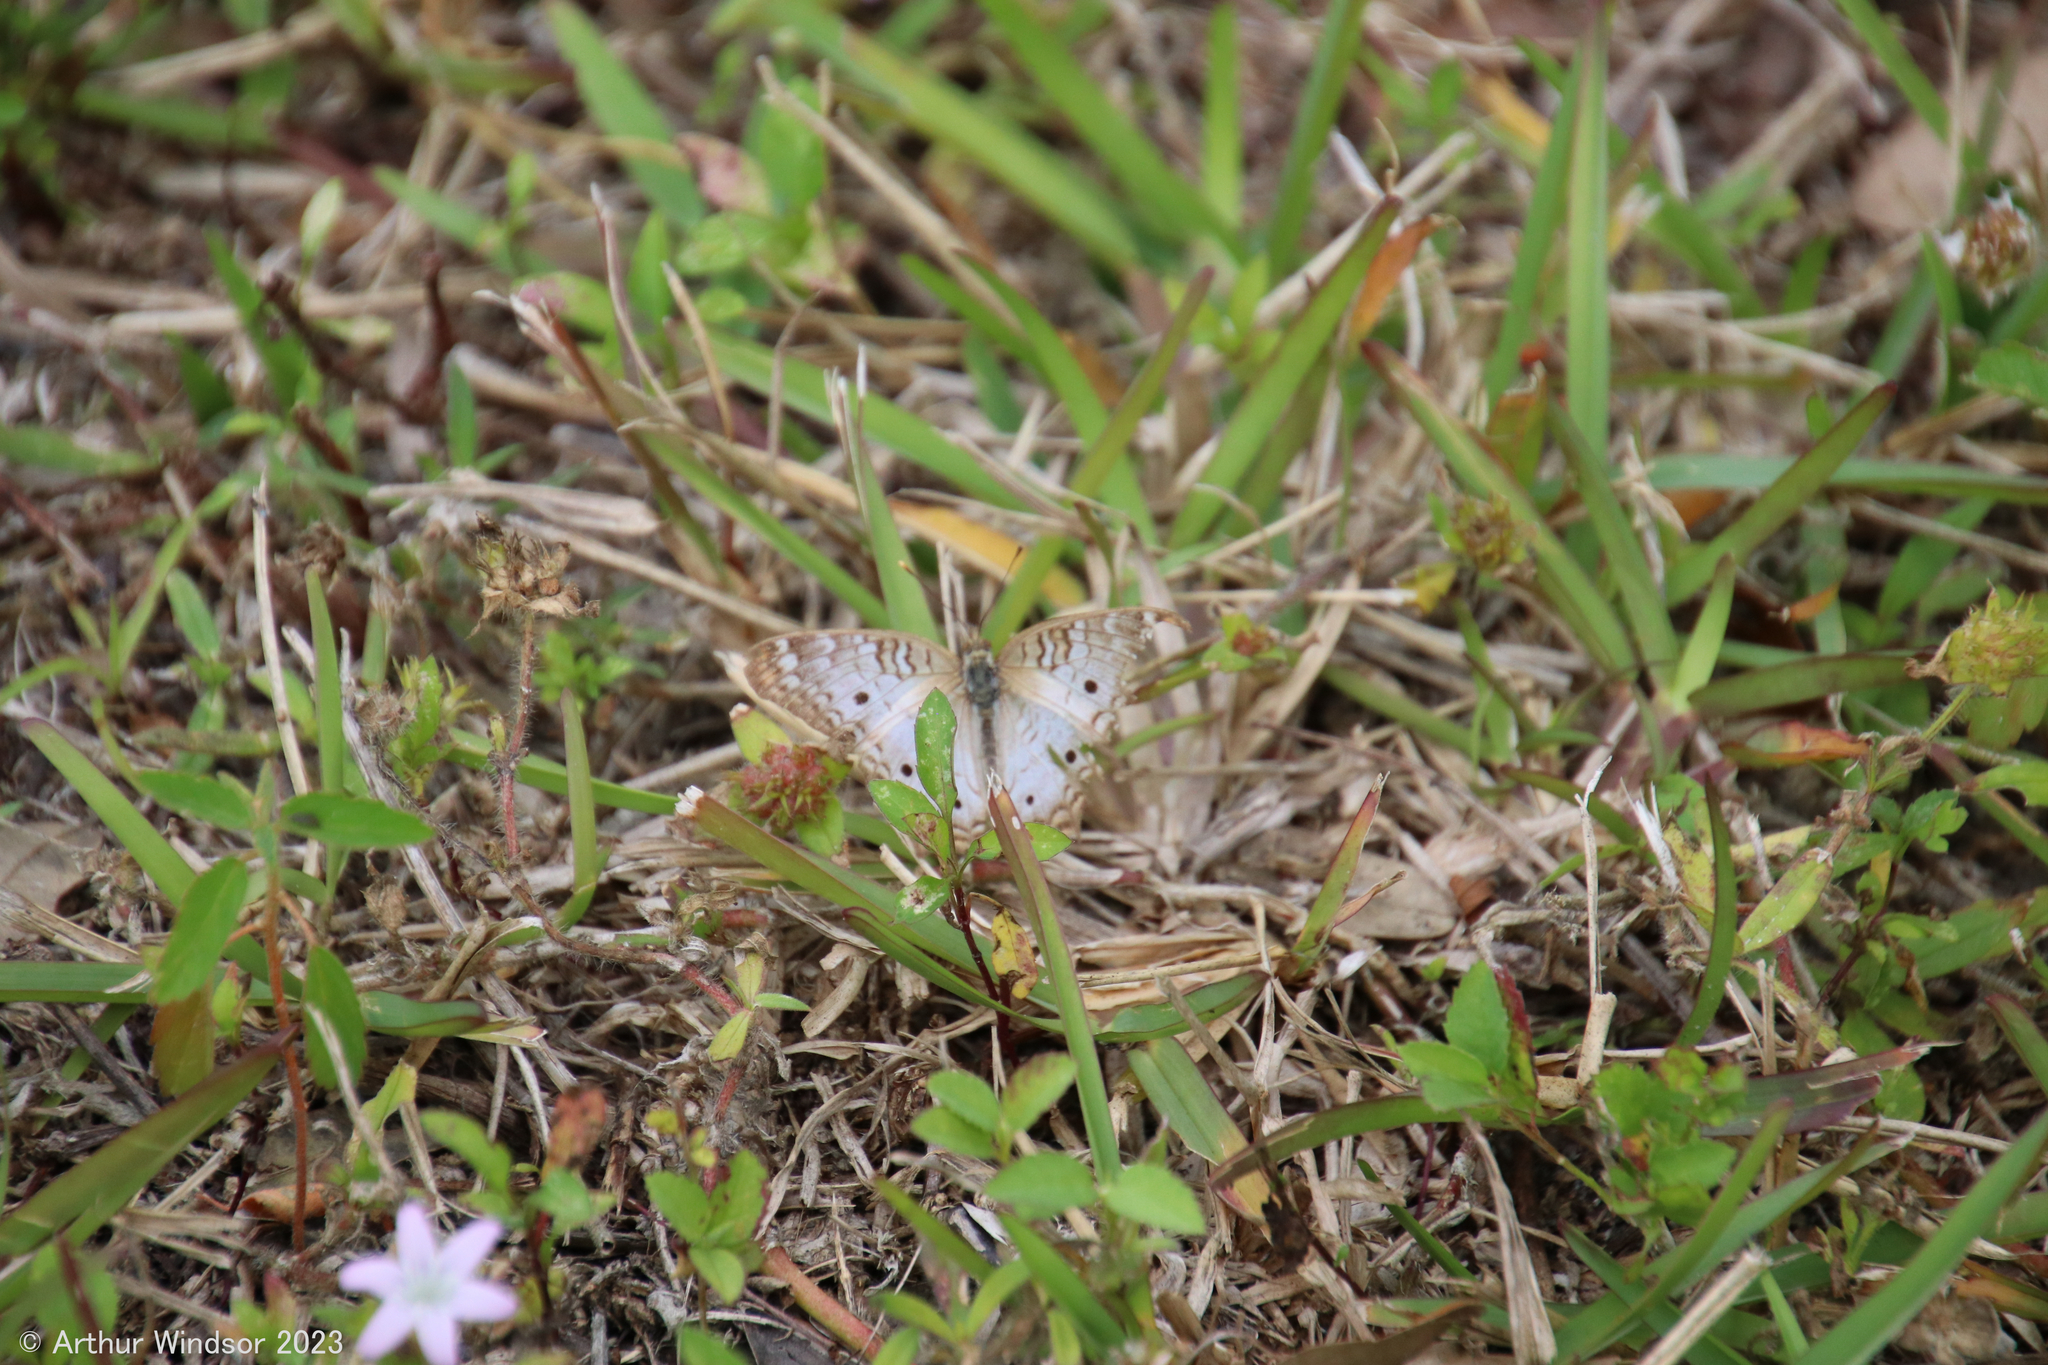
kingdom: Animalia
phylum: Arthropoda
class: Insecta
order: Lepidoptera
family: Nymphalidae
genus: Anartia
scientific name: Anartia jatrophae
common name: White peacock
